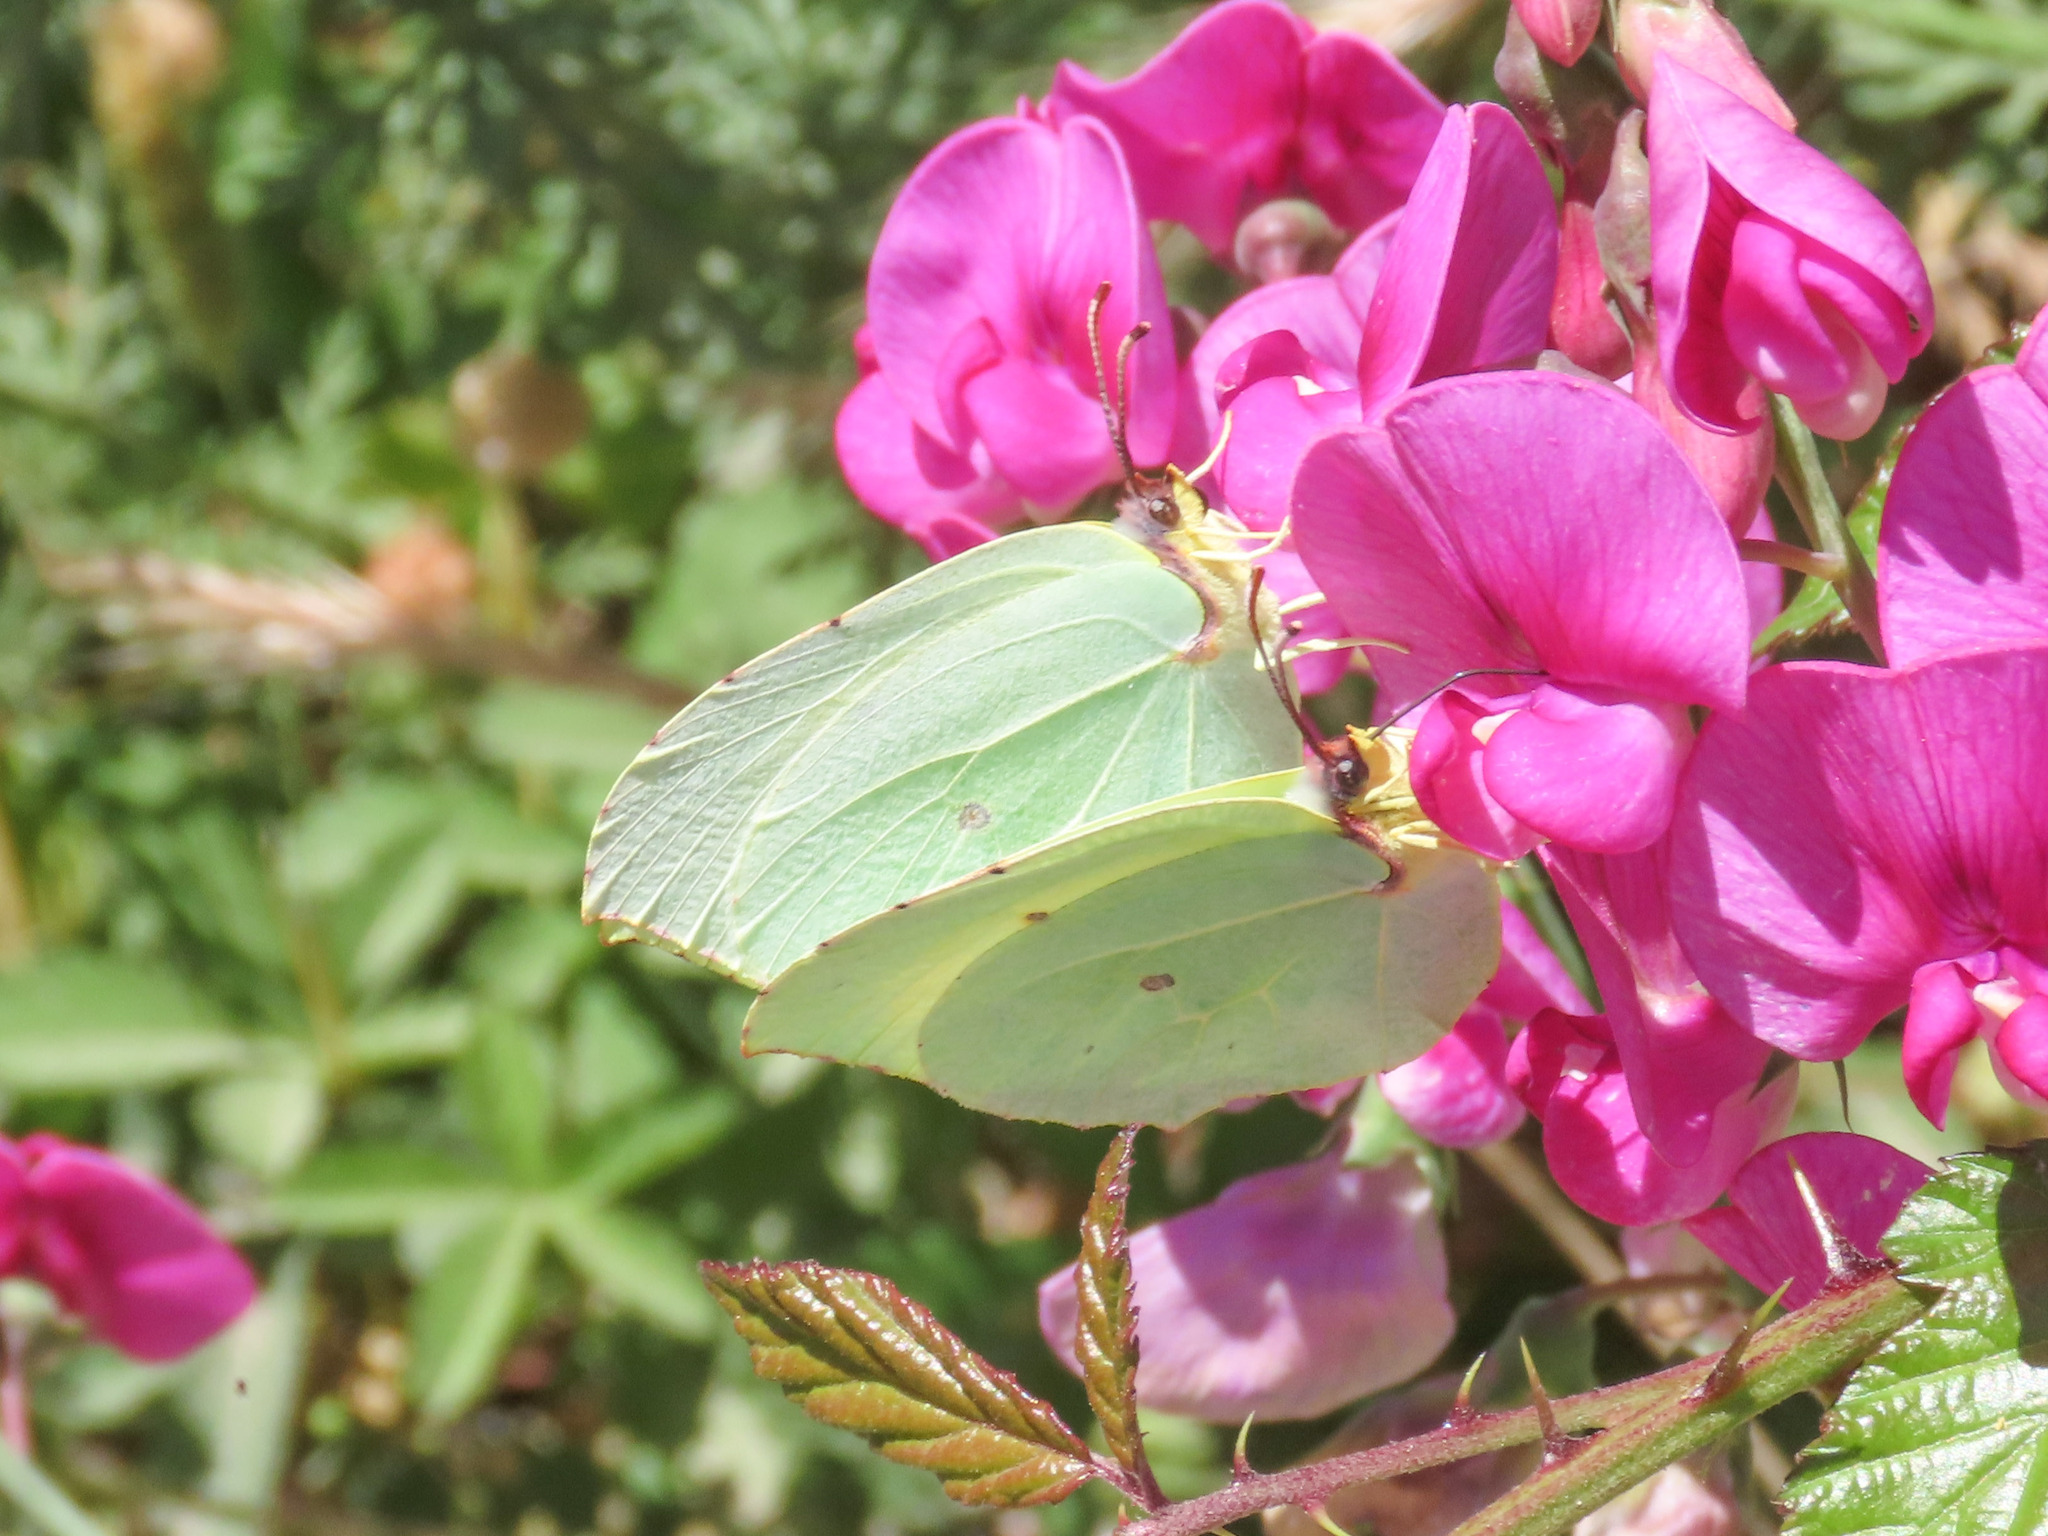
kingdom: Animalia
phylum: Arthropoda
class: Insecta
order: Lepidoptera
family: Pieridae
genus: Gonepteryx
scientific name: Gonepteryx rhamni
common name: Brimstone
